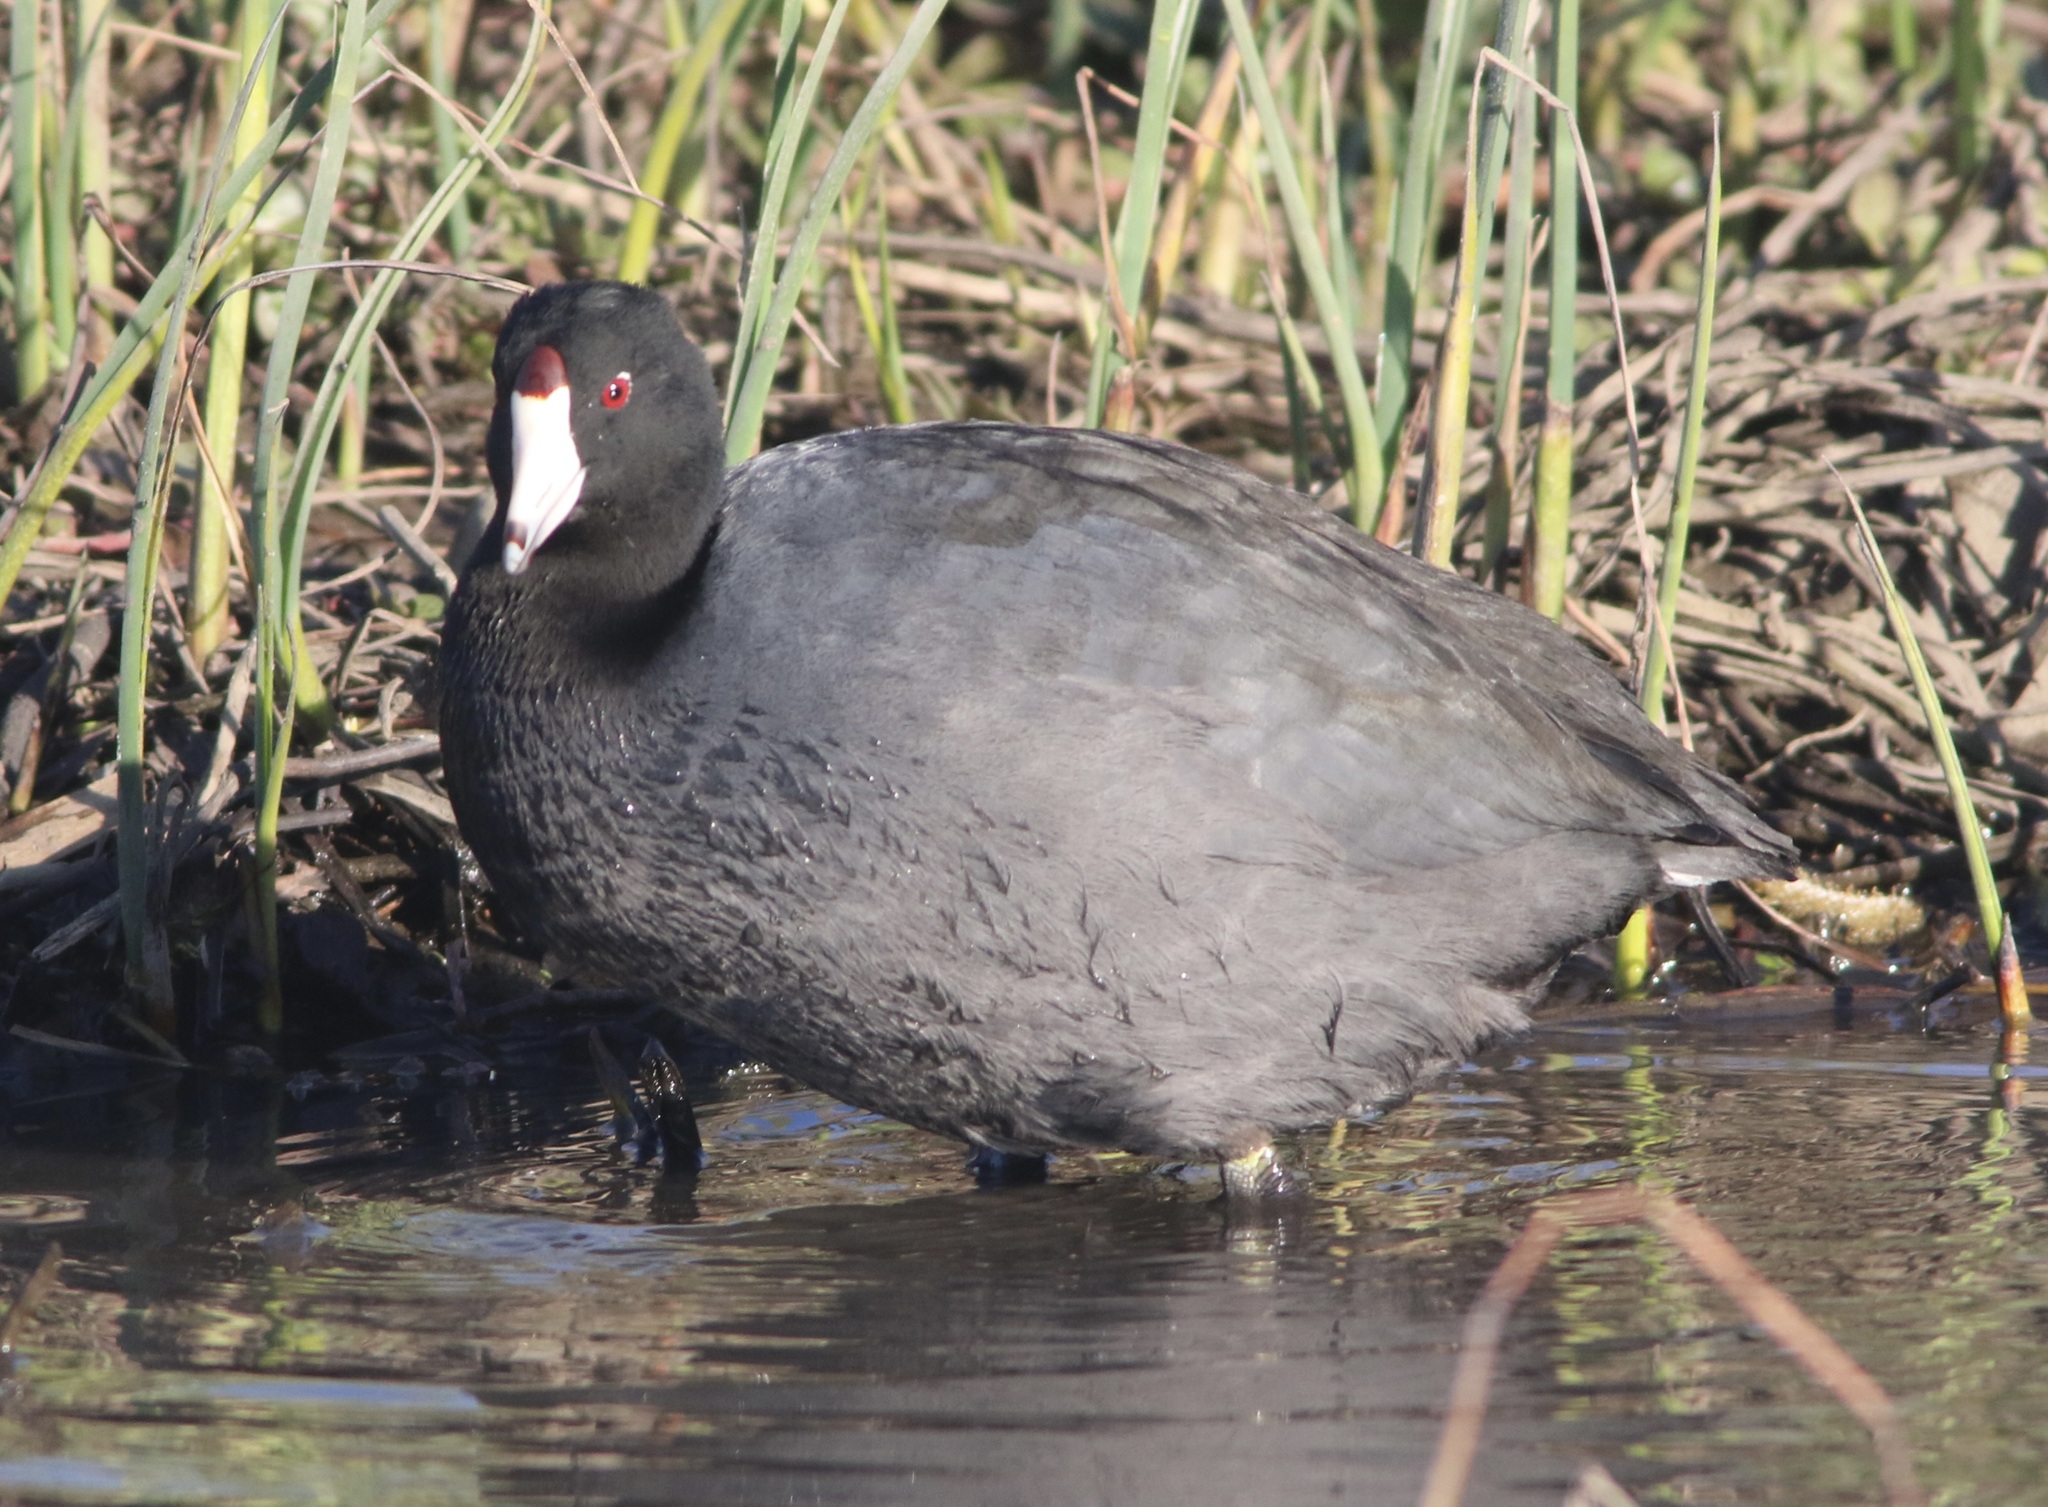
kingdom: Animalia
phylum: Chordata
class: Aves
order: Gruiformes
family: Rallidae
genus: Fulica
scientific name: Fulica americana
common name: American coot
